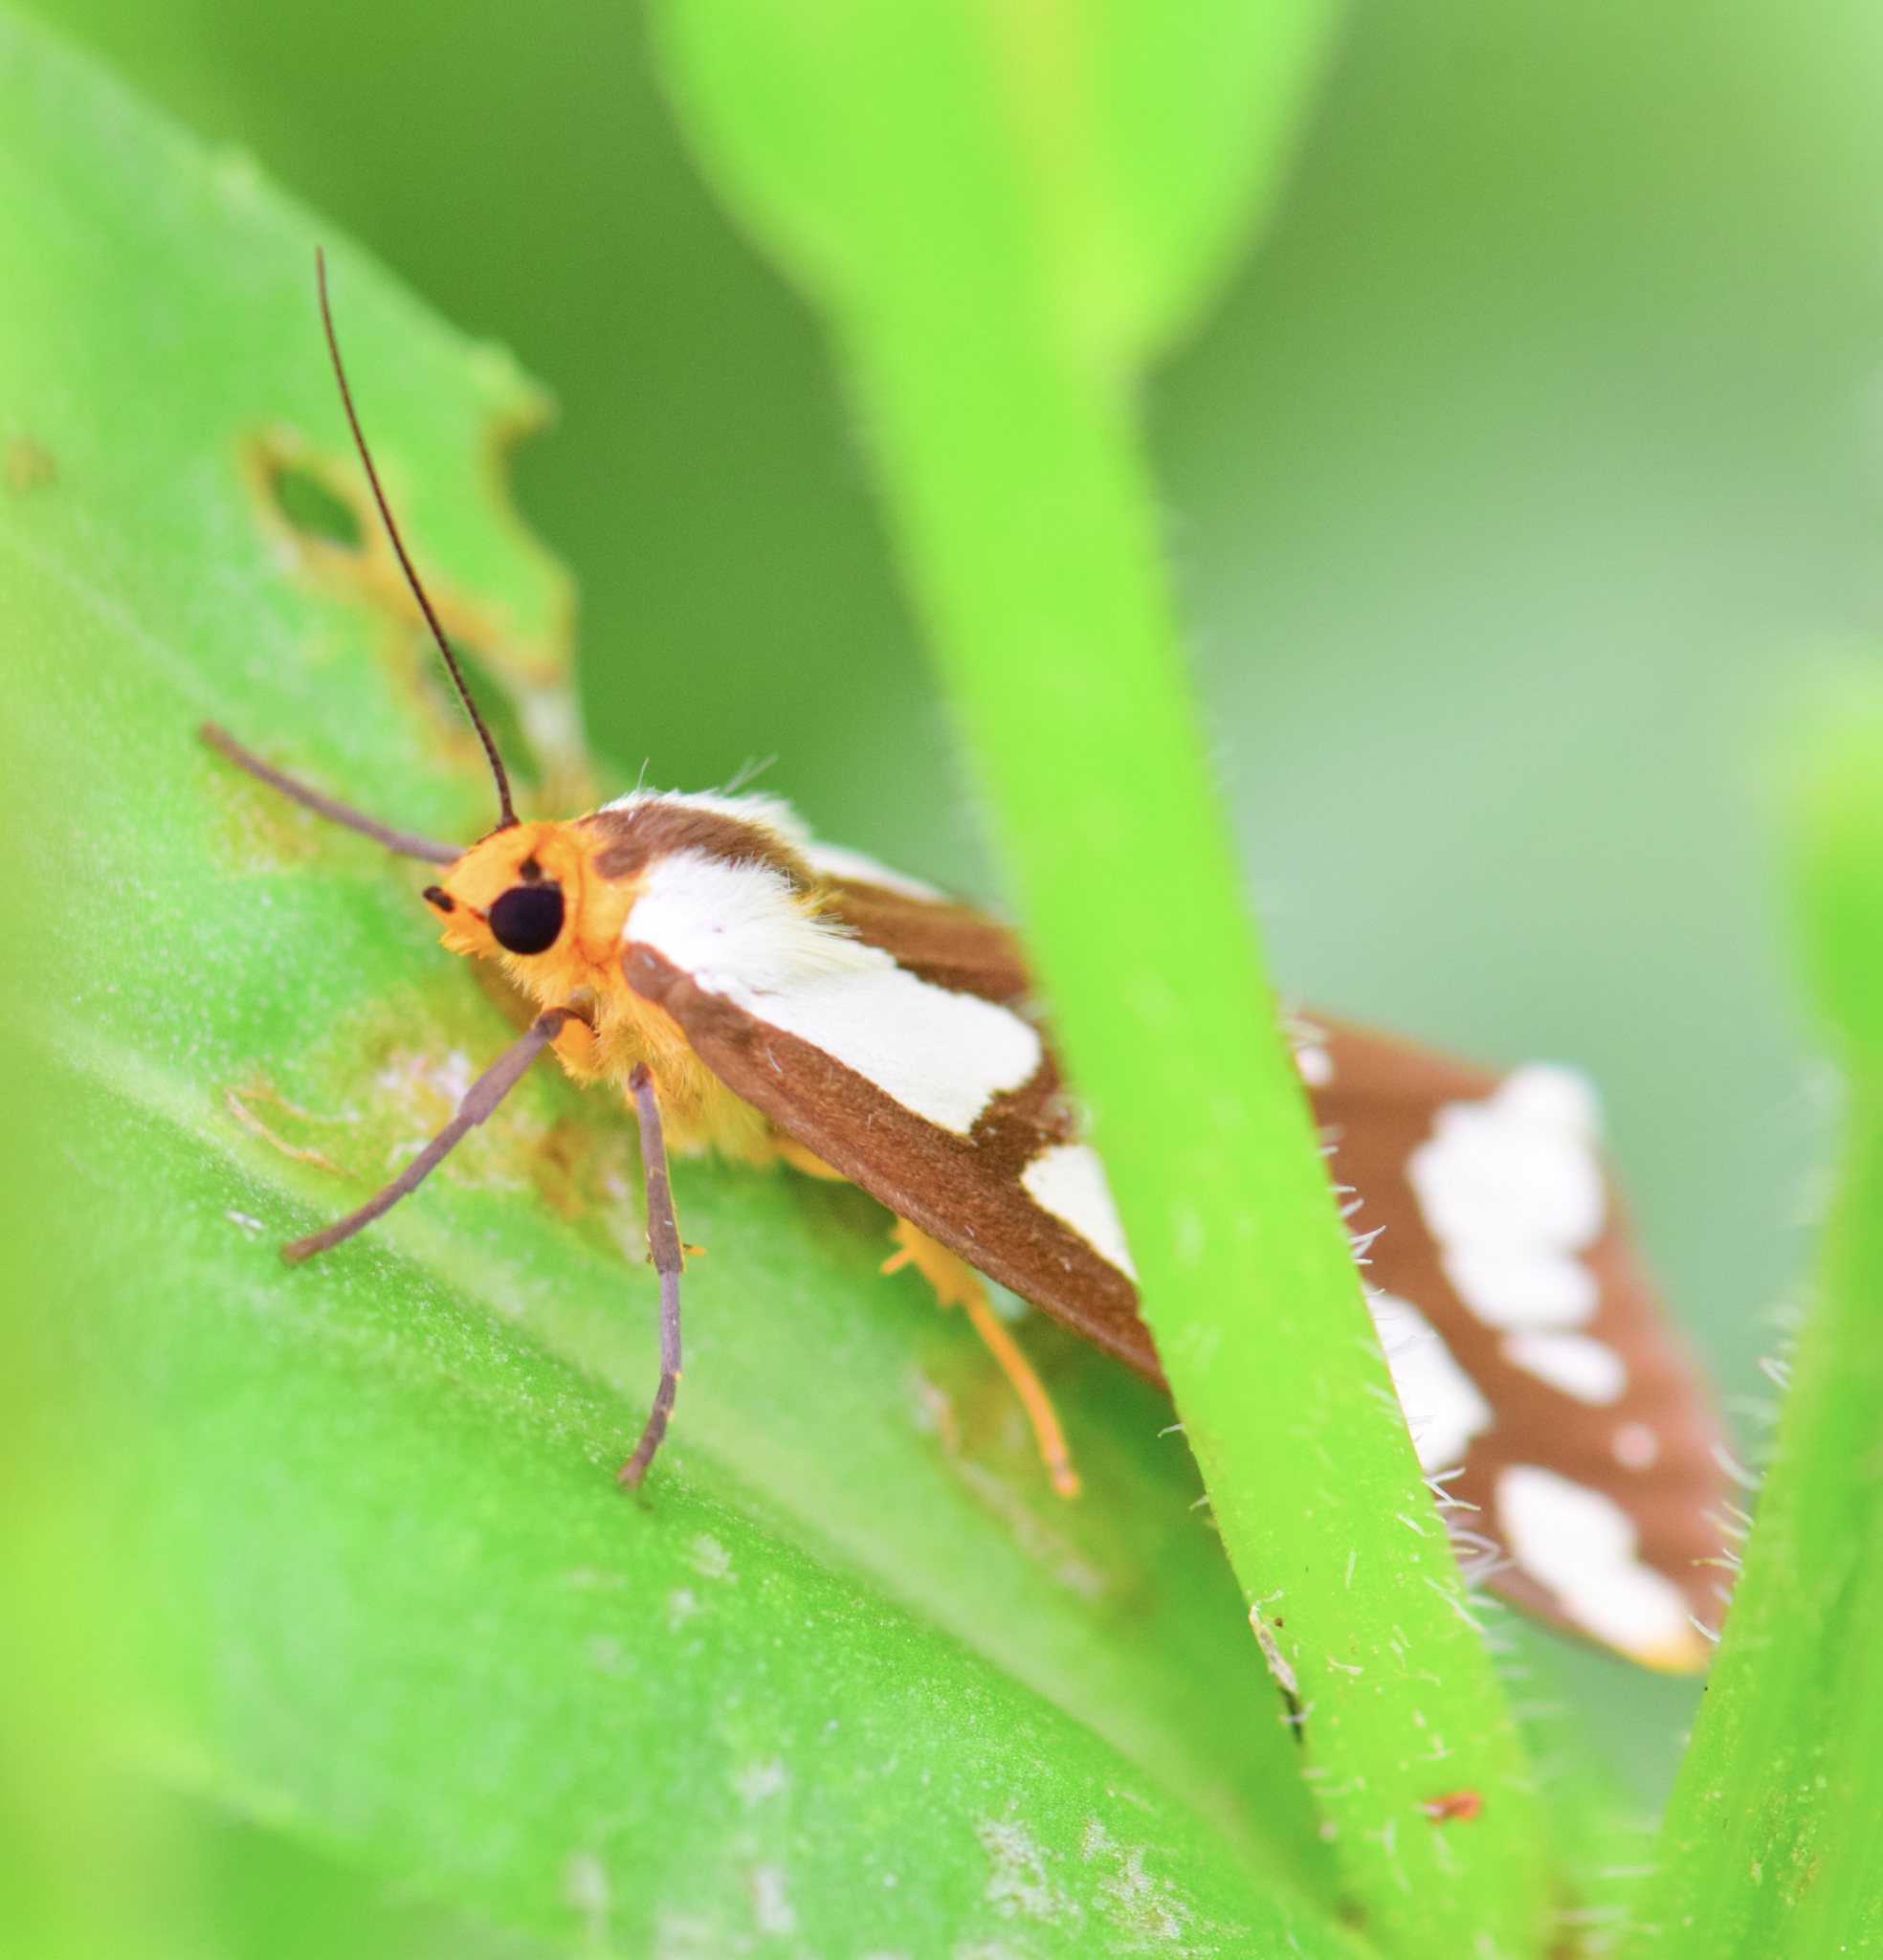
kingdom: Animalia
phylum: Arthropoda
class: Insecta
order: Lepidoptera
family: Erebidae
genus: Haploa
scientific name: Haploa confusa
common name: Confused haploa moth
